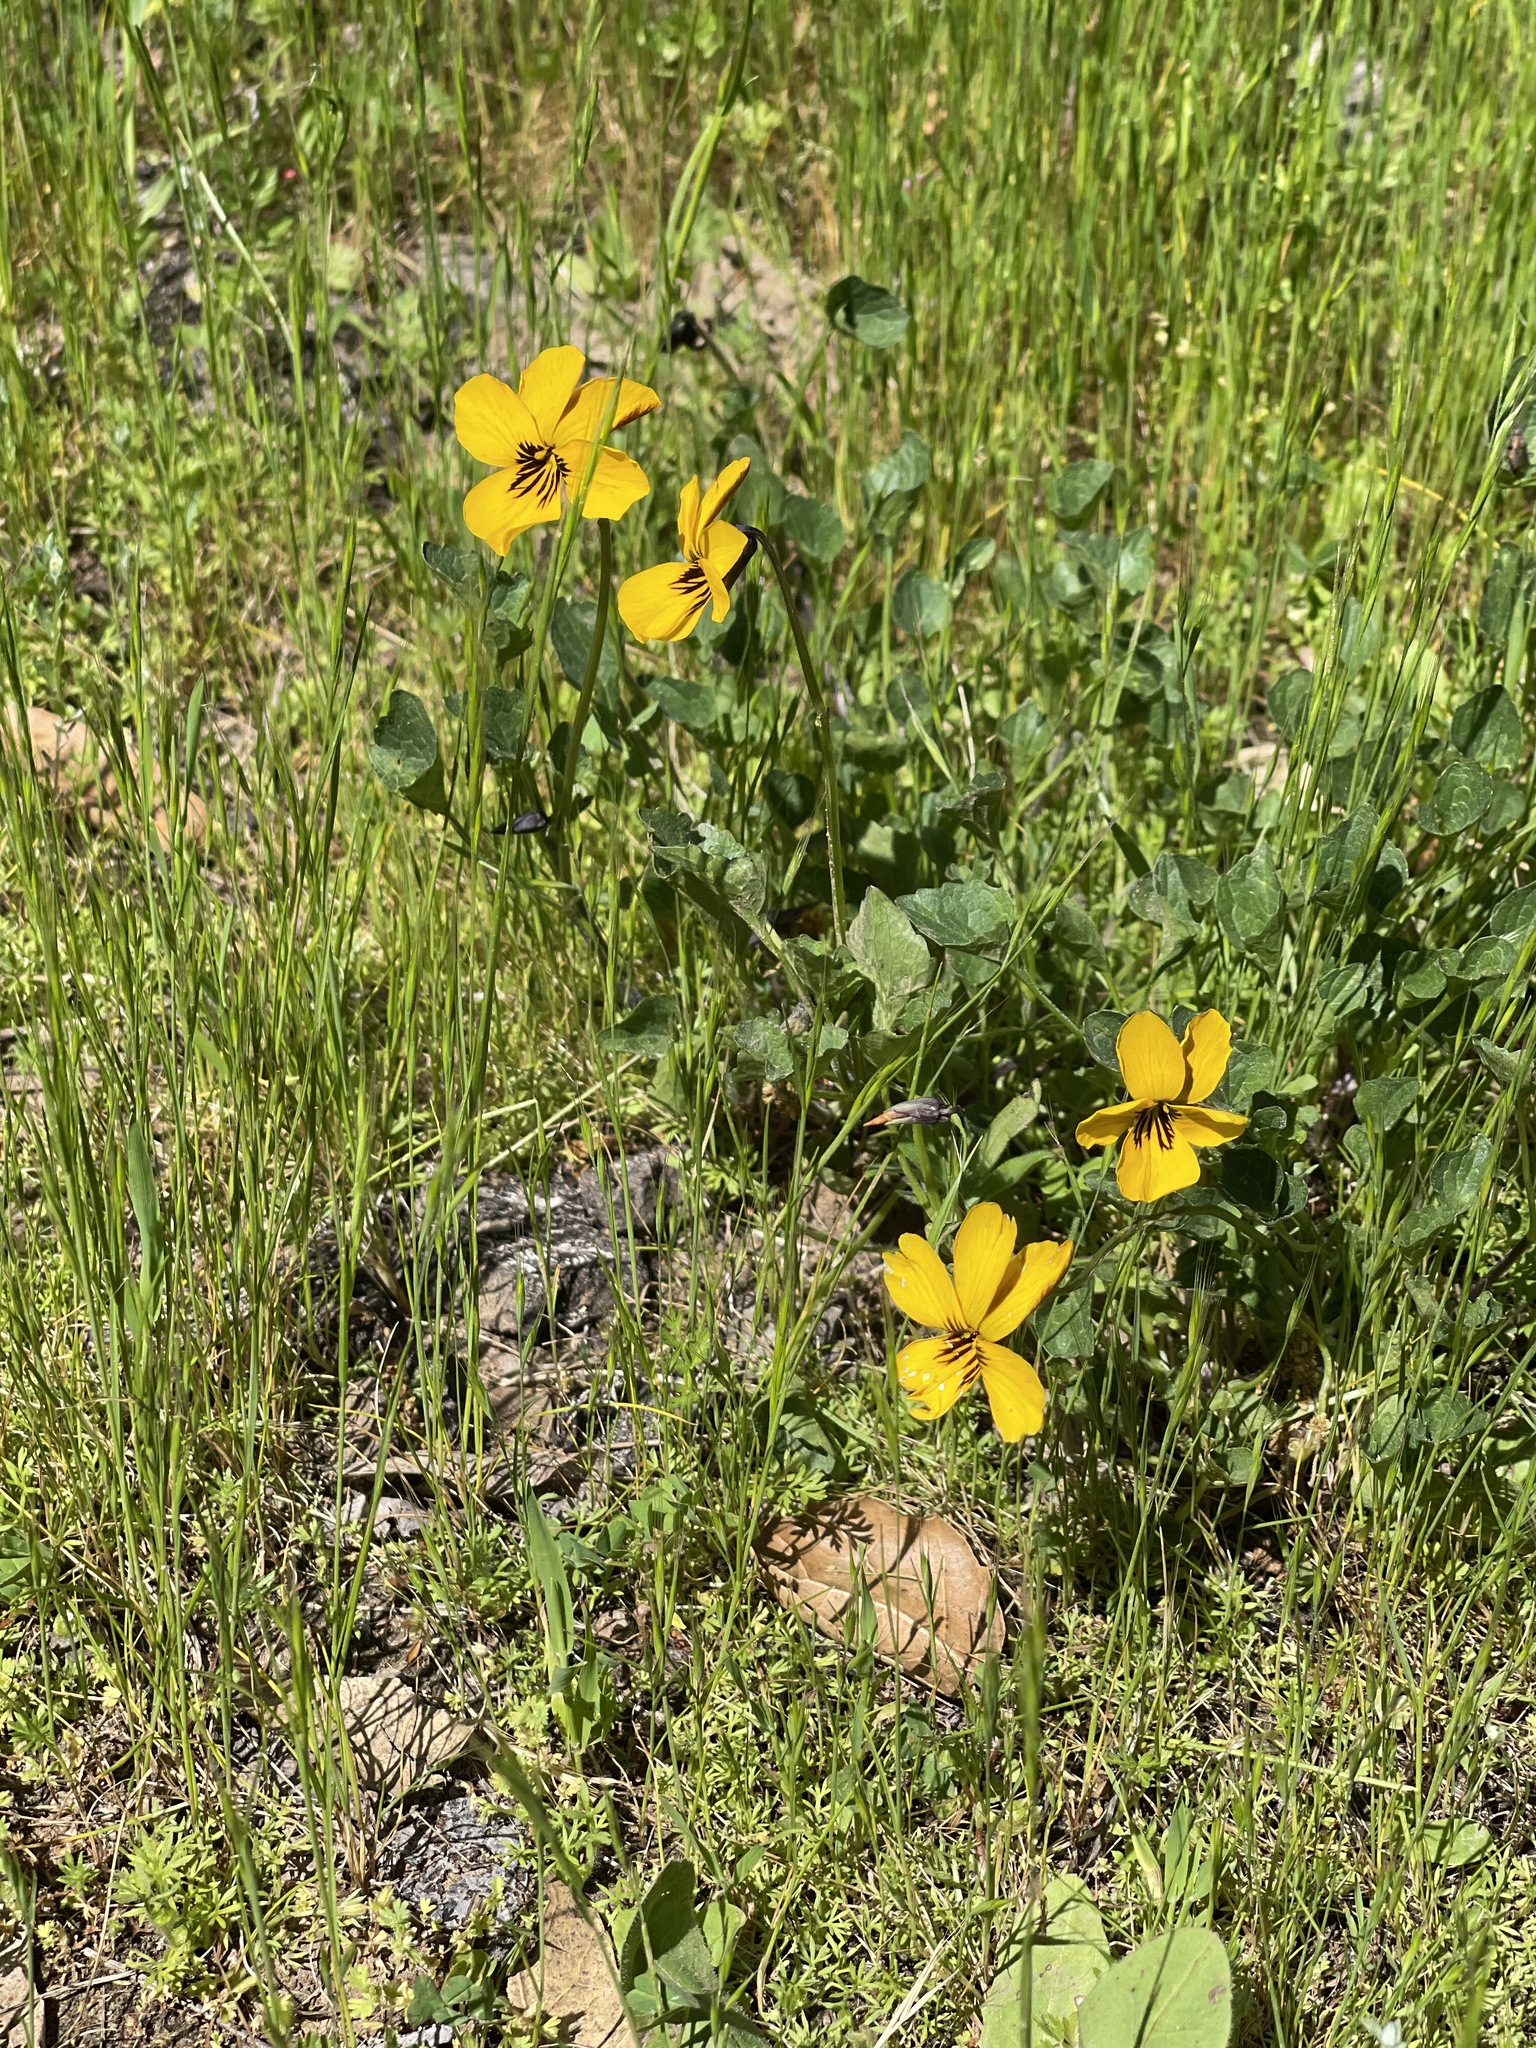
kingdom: Plantae
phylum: Tracheophyta
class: Magnoliopsida
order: Malpighiales
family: Violaceae
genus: Viola
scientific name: Viola pedunculata
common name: California golden violet
